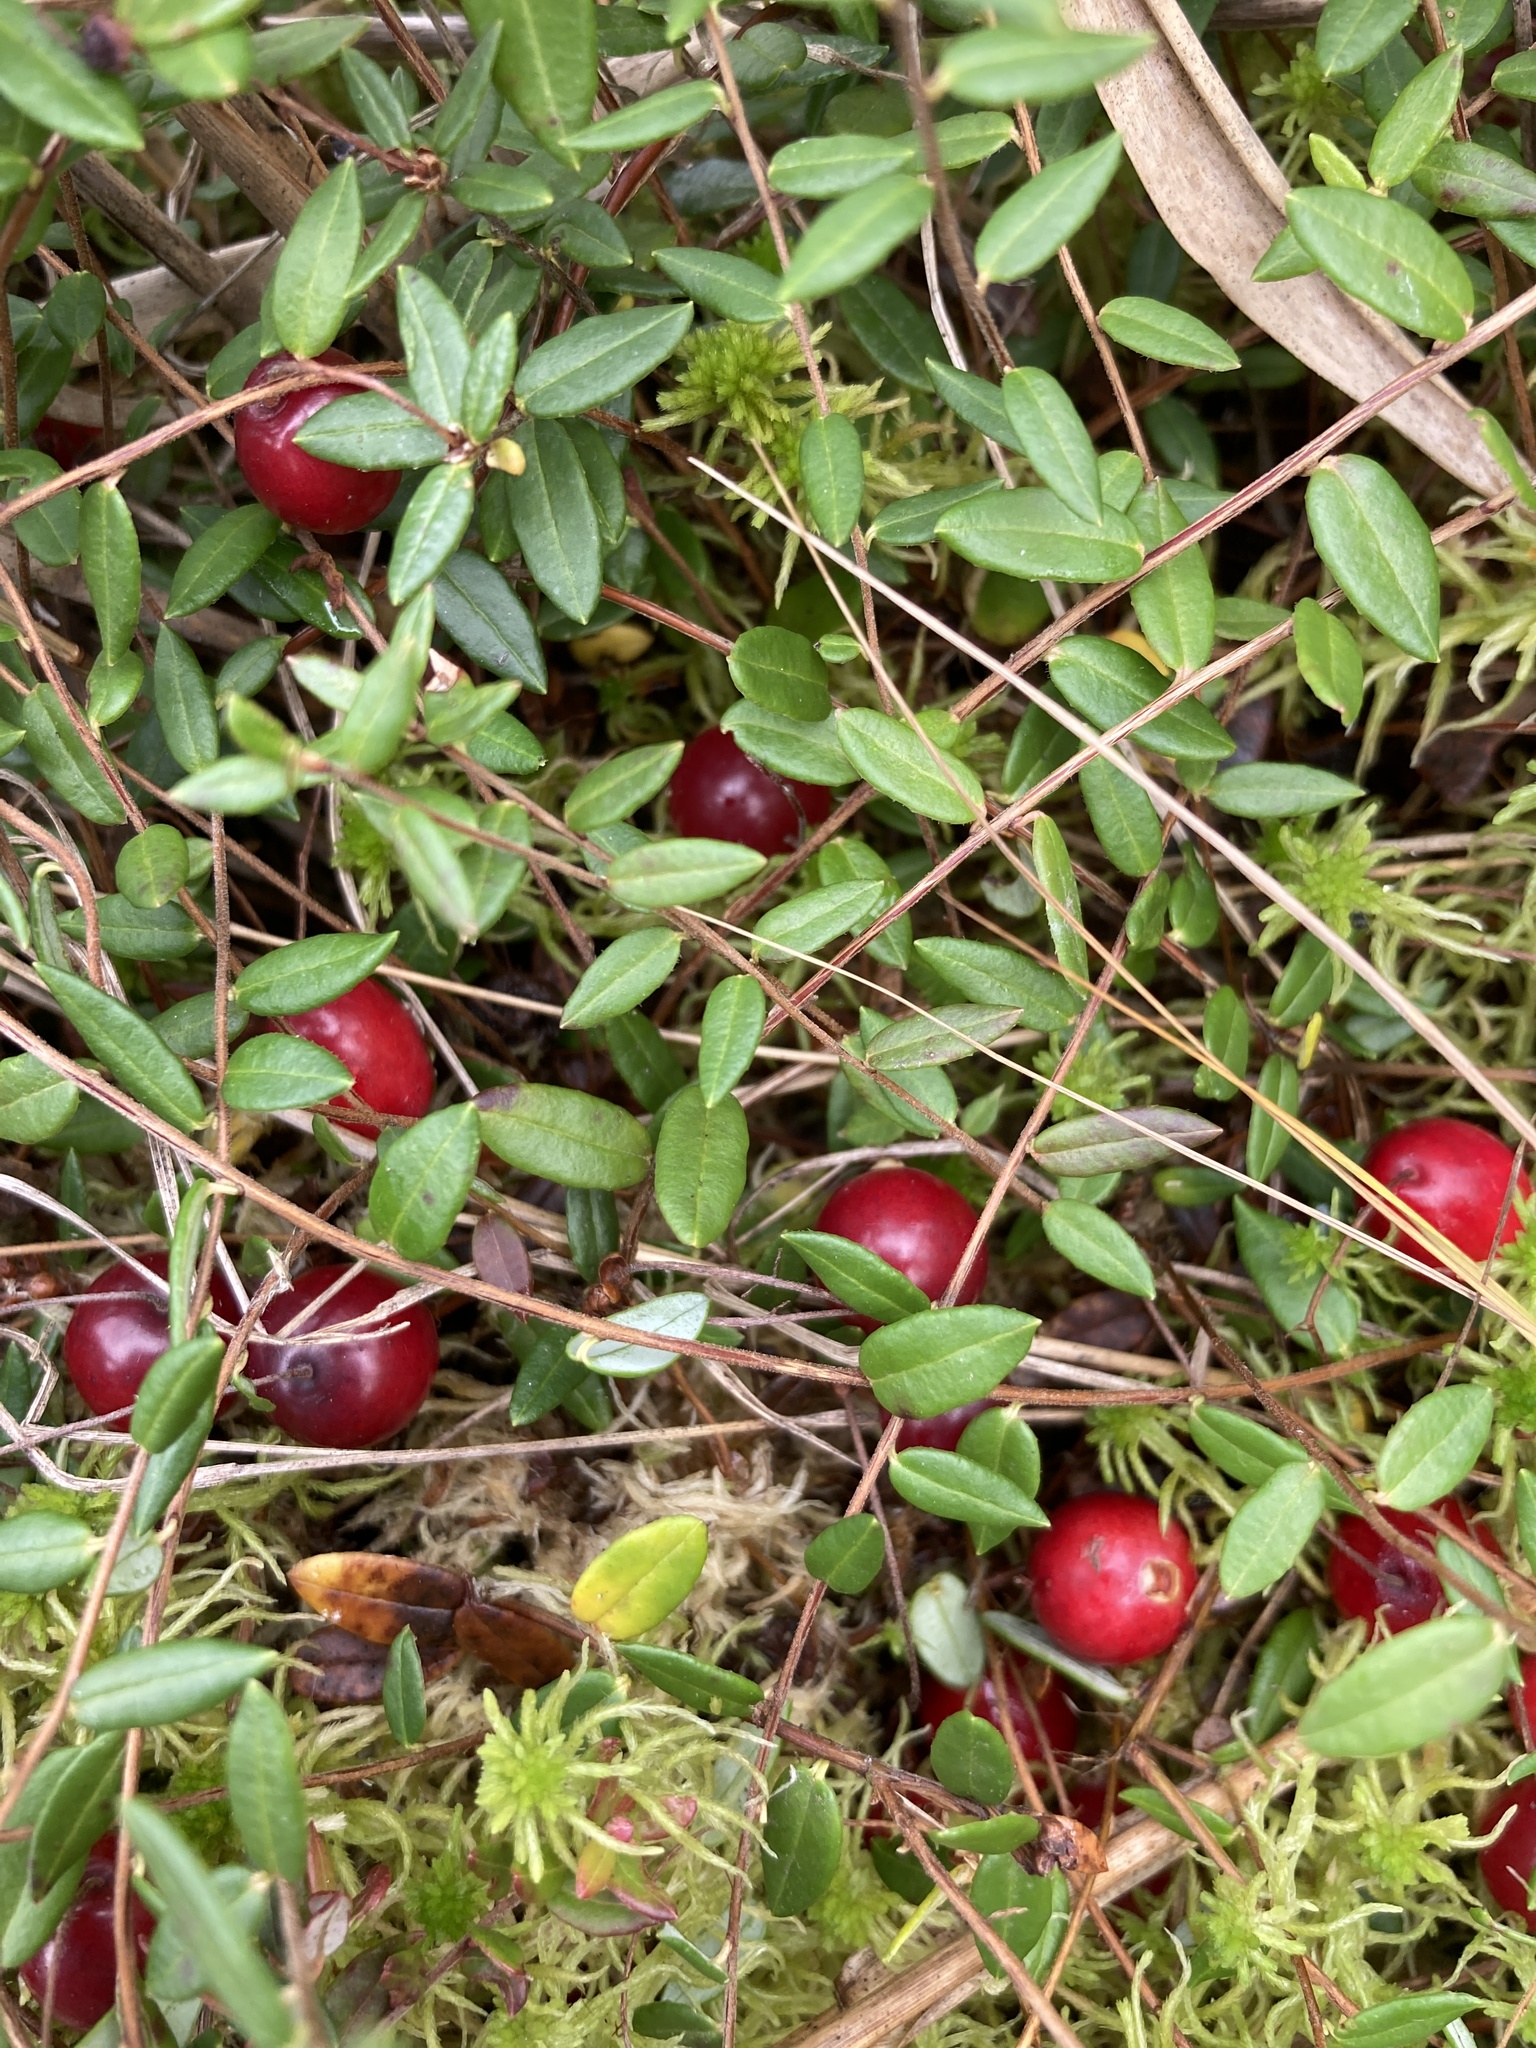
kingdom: Plantae
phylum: Tracheophyta
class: Magnoliopsida
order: Ericales
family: Ericaceae
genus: Vaccinium
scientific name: Vaccinium oxycoccos
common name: Cranberry
